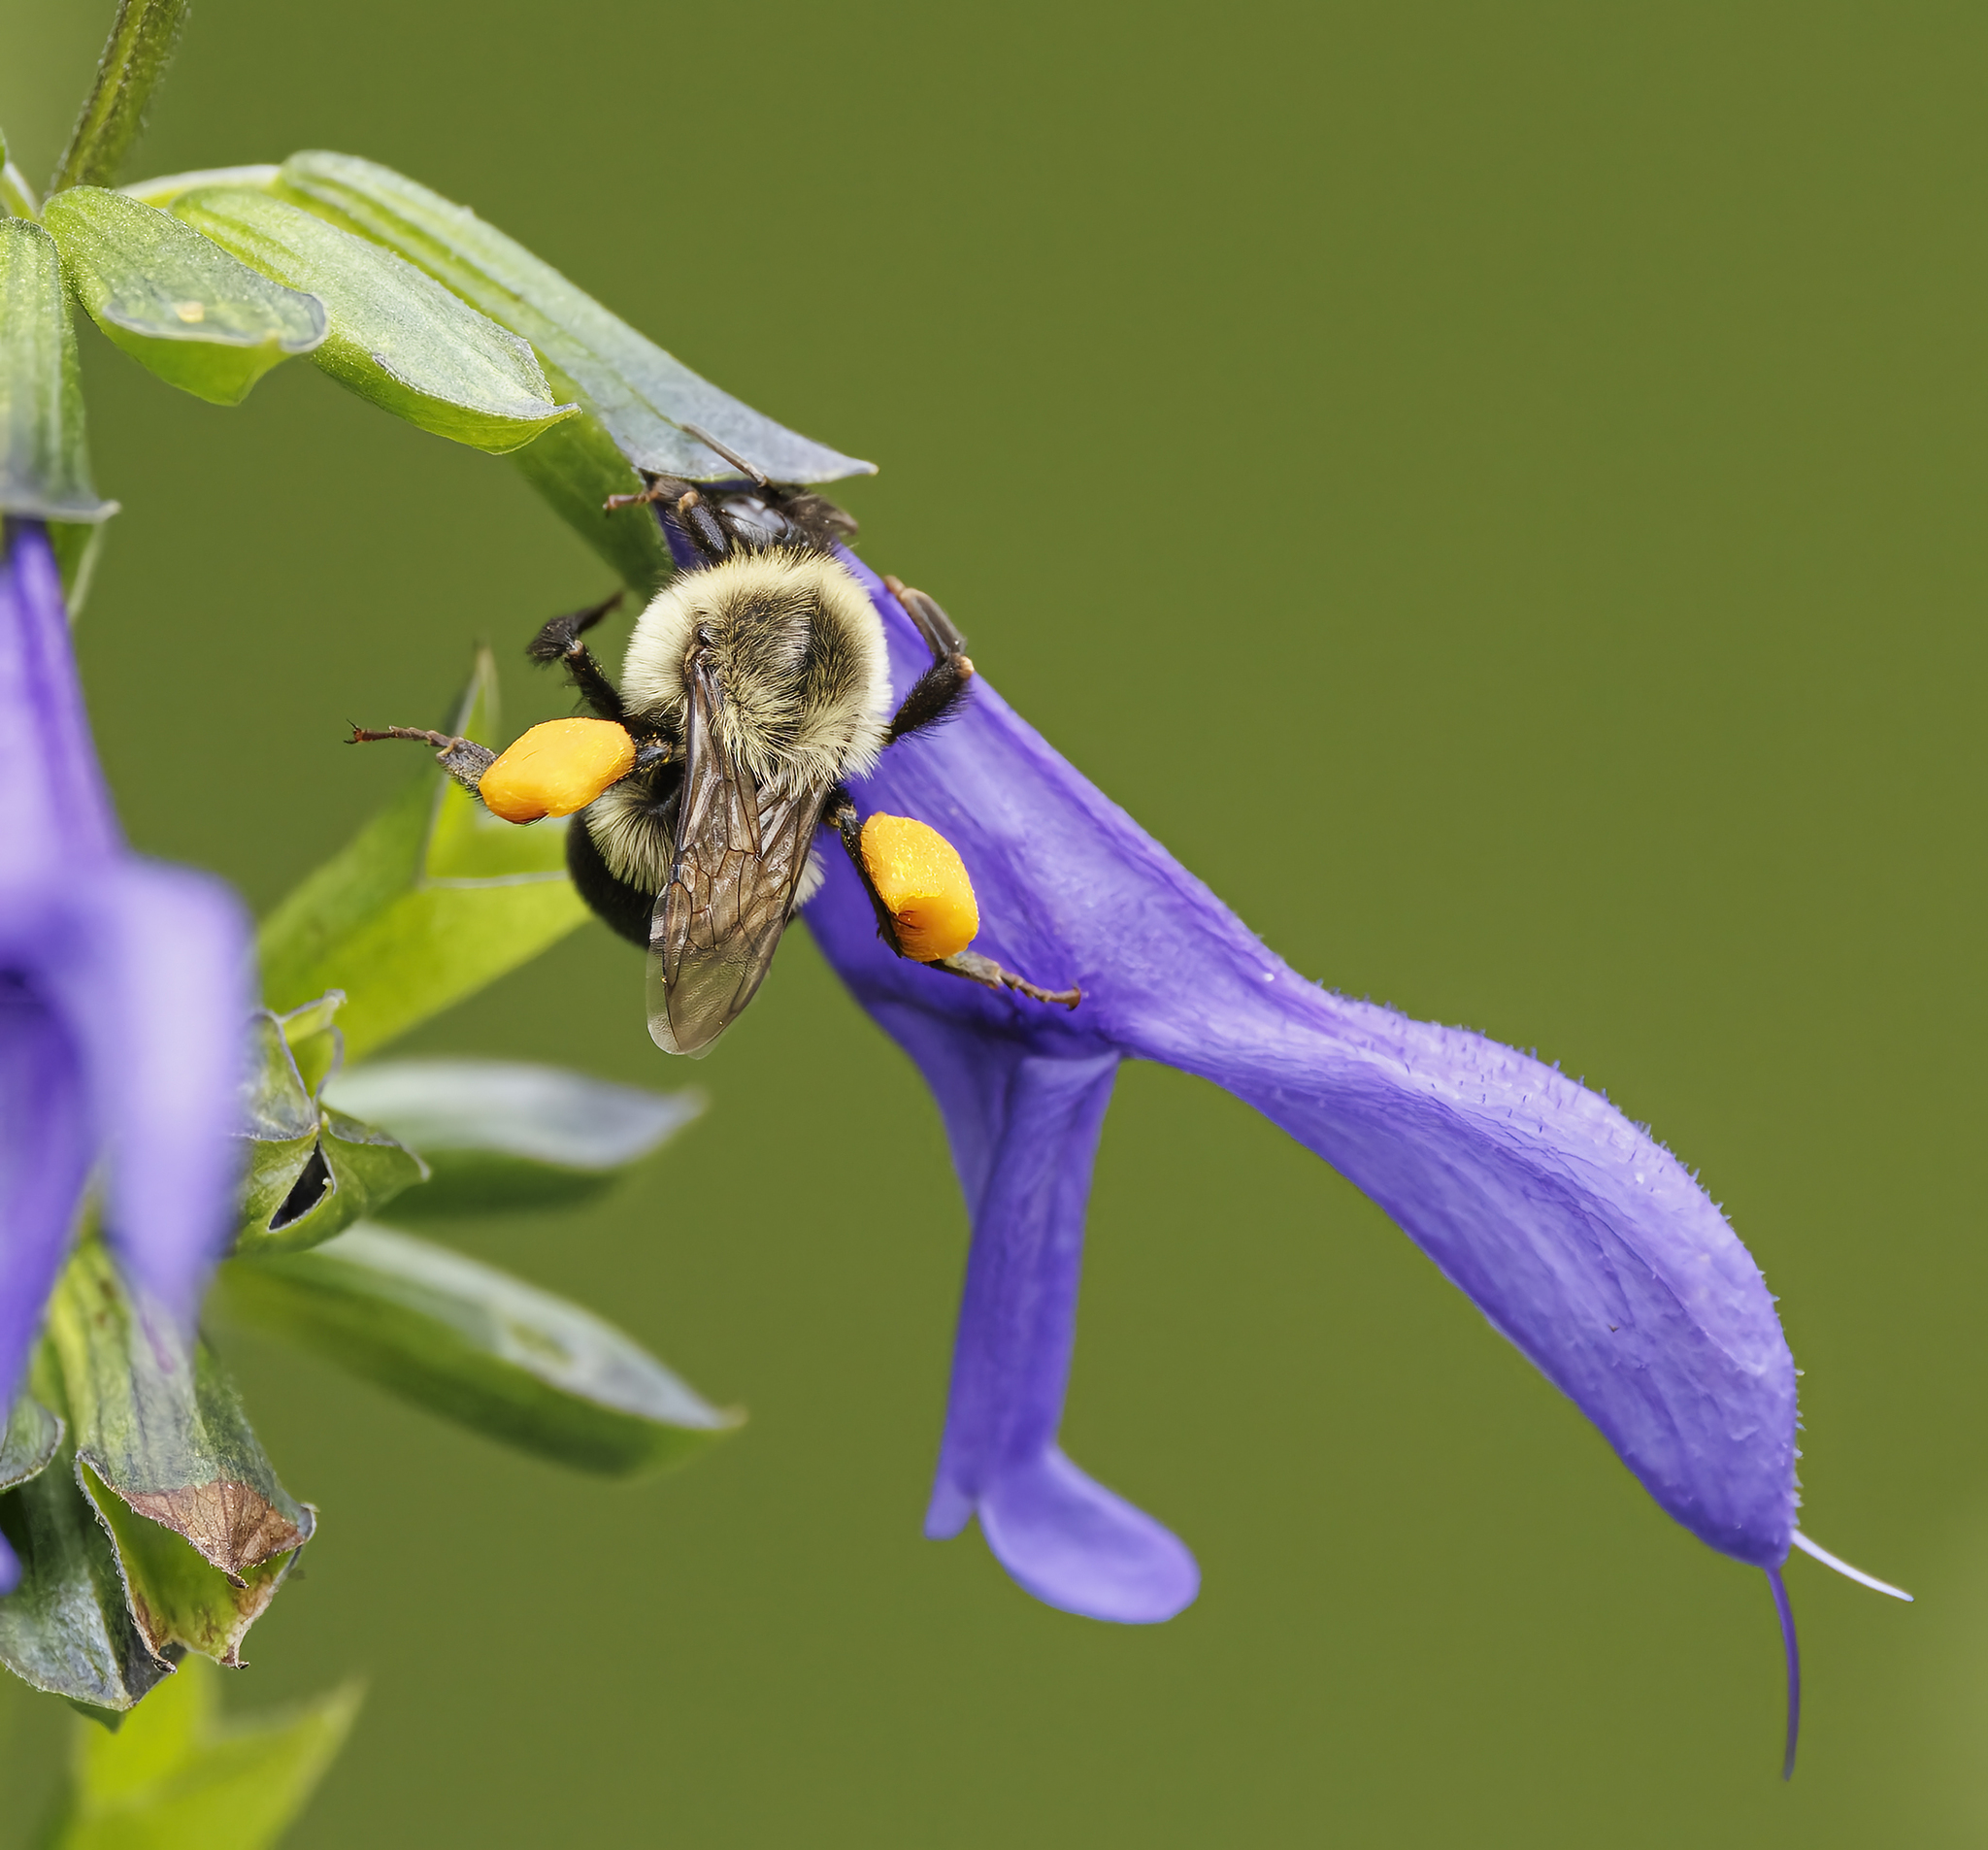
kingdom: Animalia
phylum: Arthropoda
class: Insecta
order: Hymenoptera
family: Apidae
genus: Bombus
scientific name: Bombus impatiens
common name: Common eastern bumble bee
